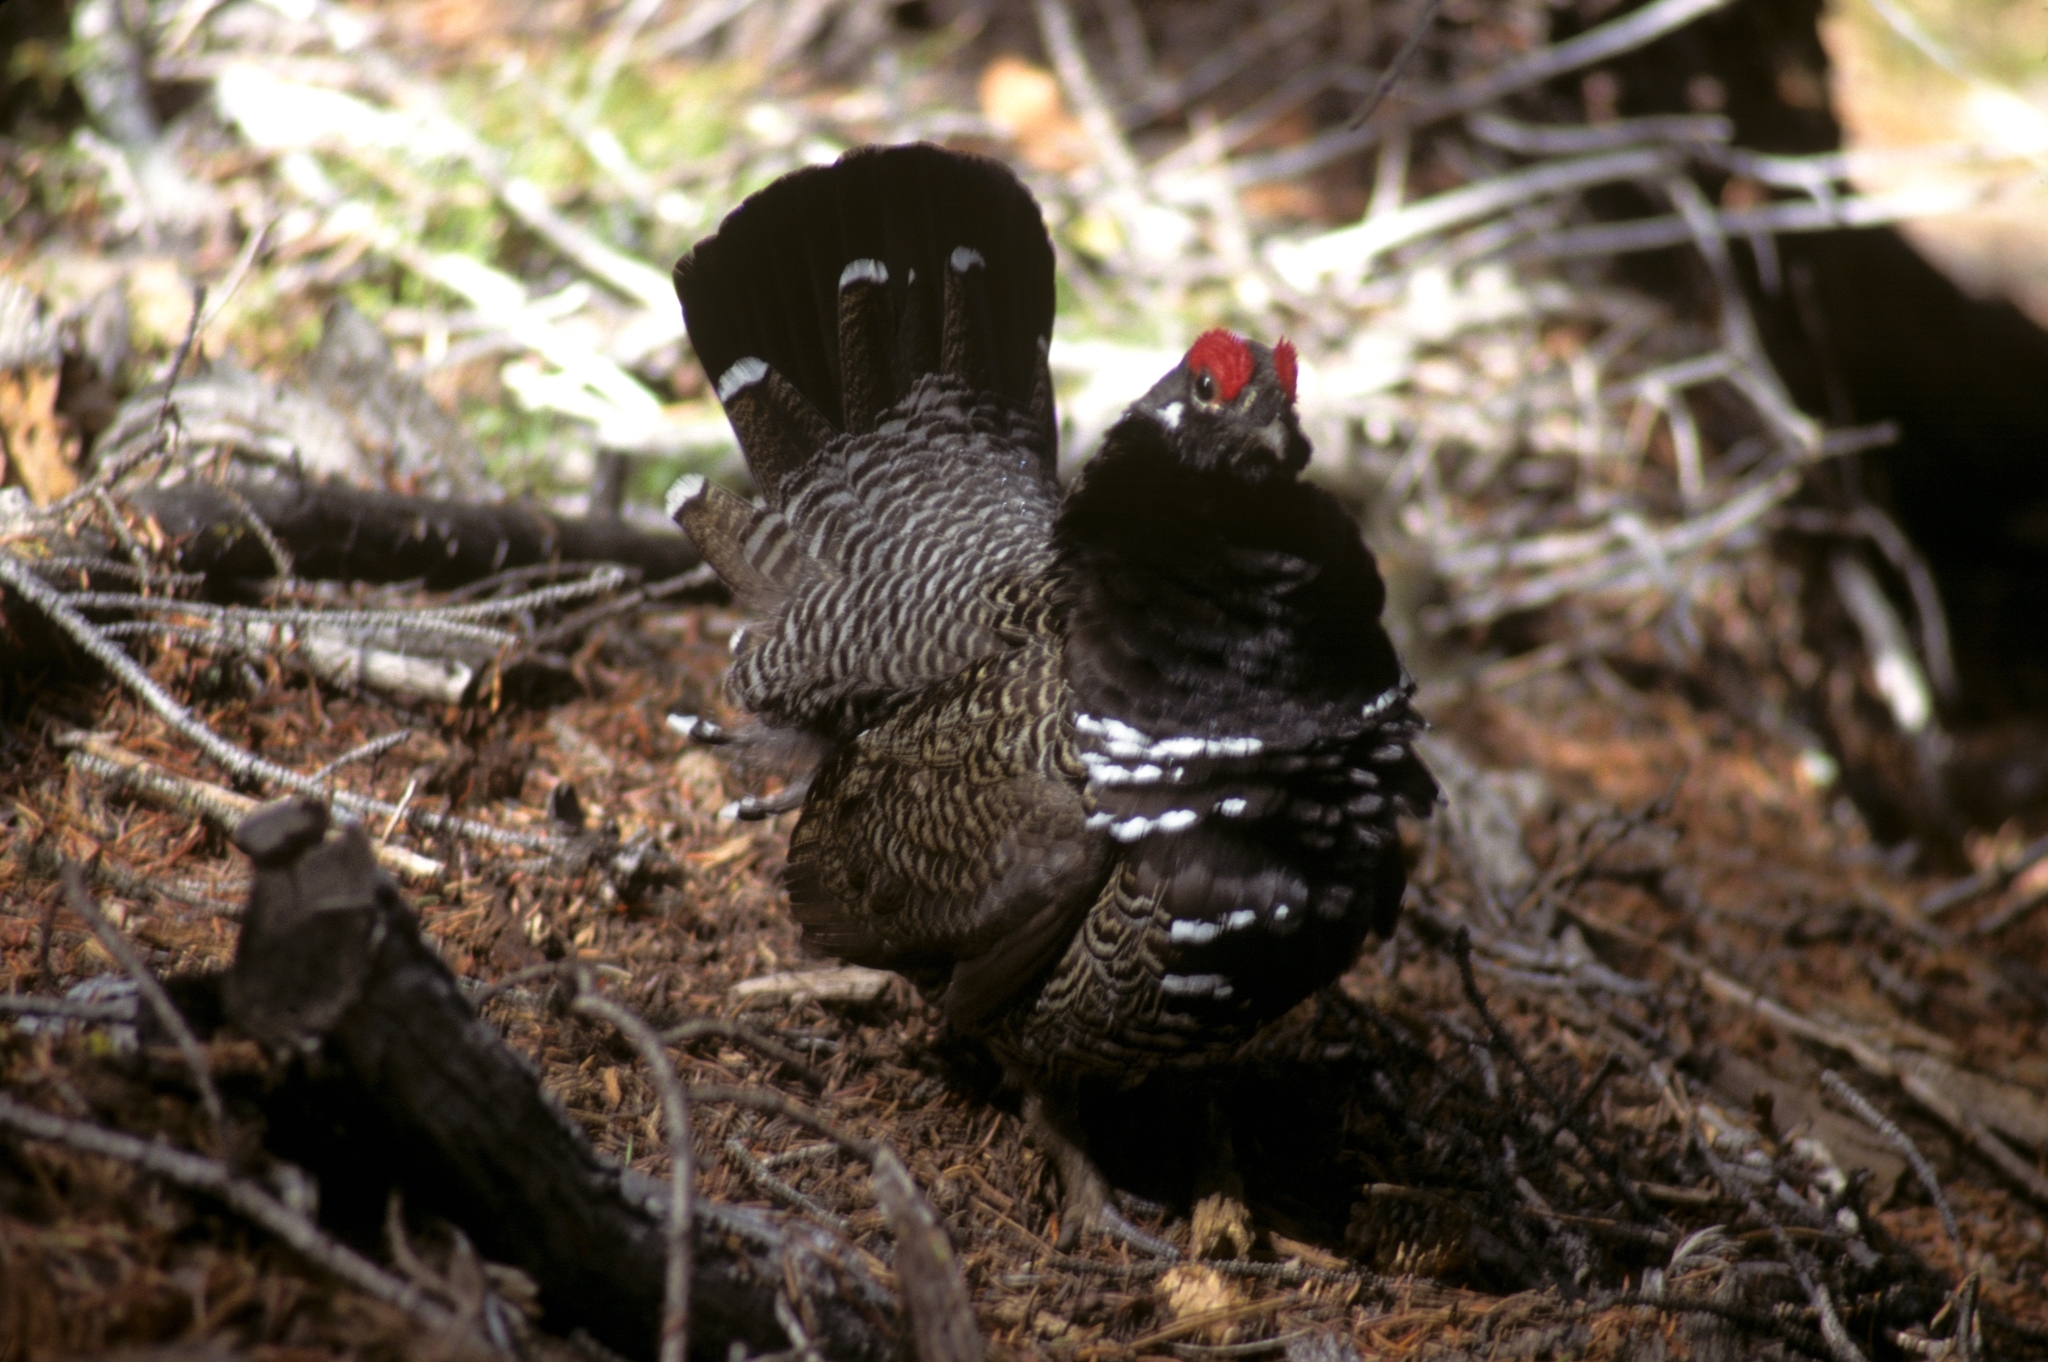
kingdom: Animalia
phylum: Chordata
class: Aves
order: Galliformes
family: Phasianidae
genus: Canachites
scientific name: Canachites canadensis
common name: Spruce grouse
